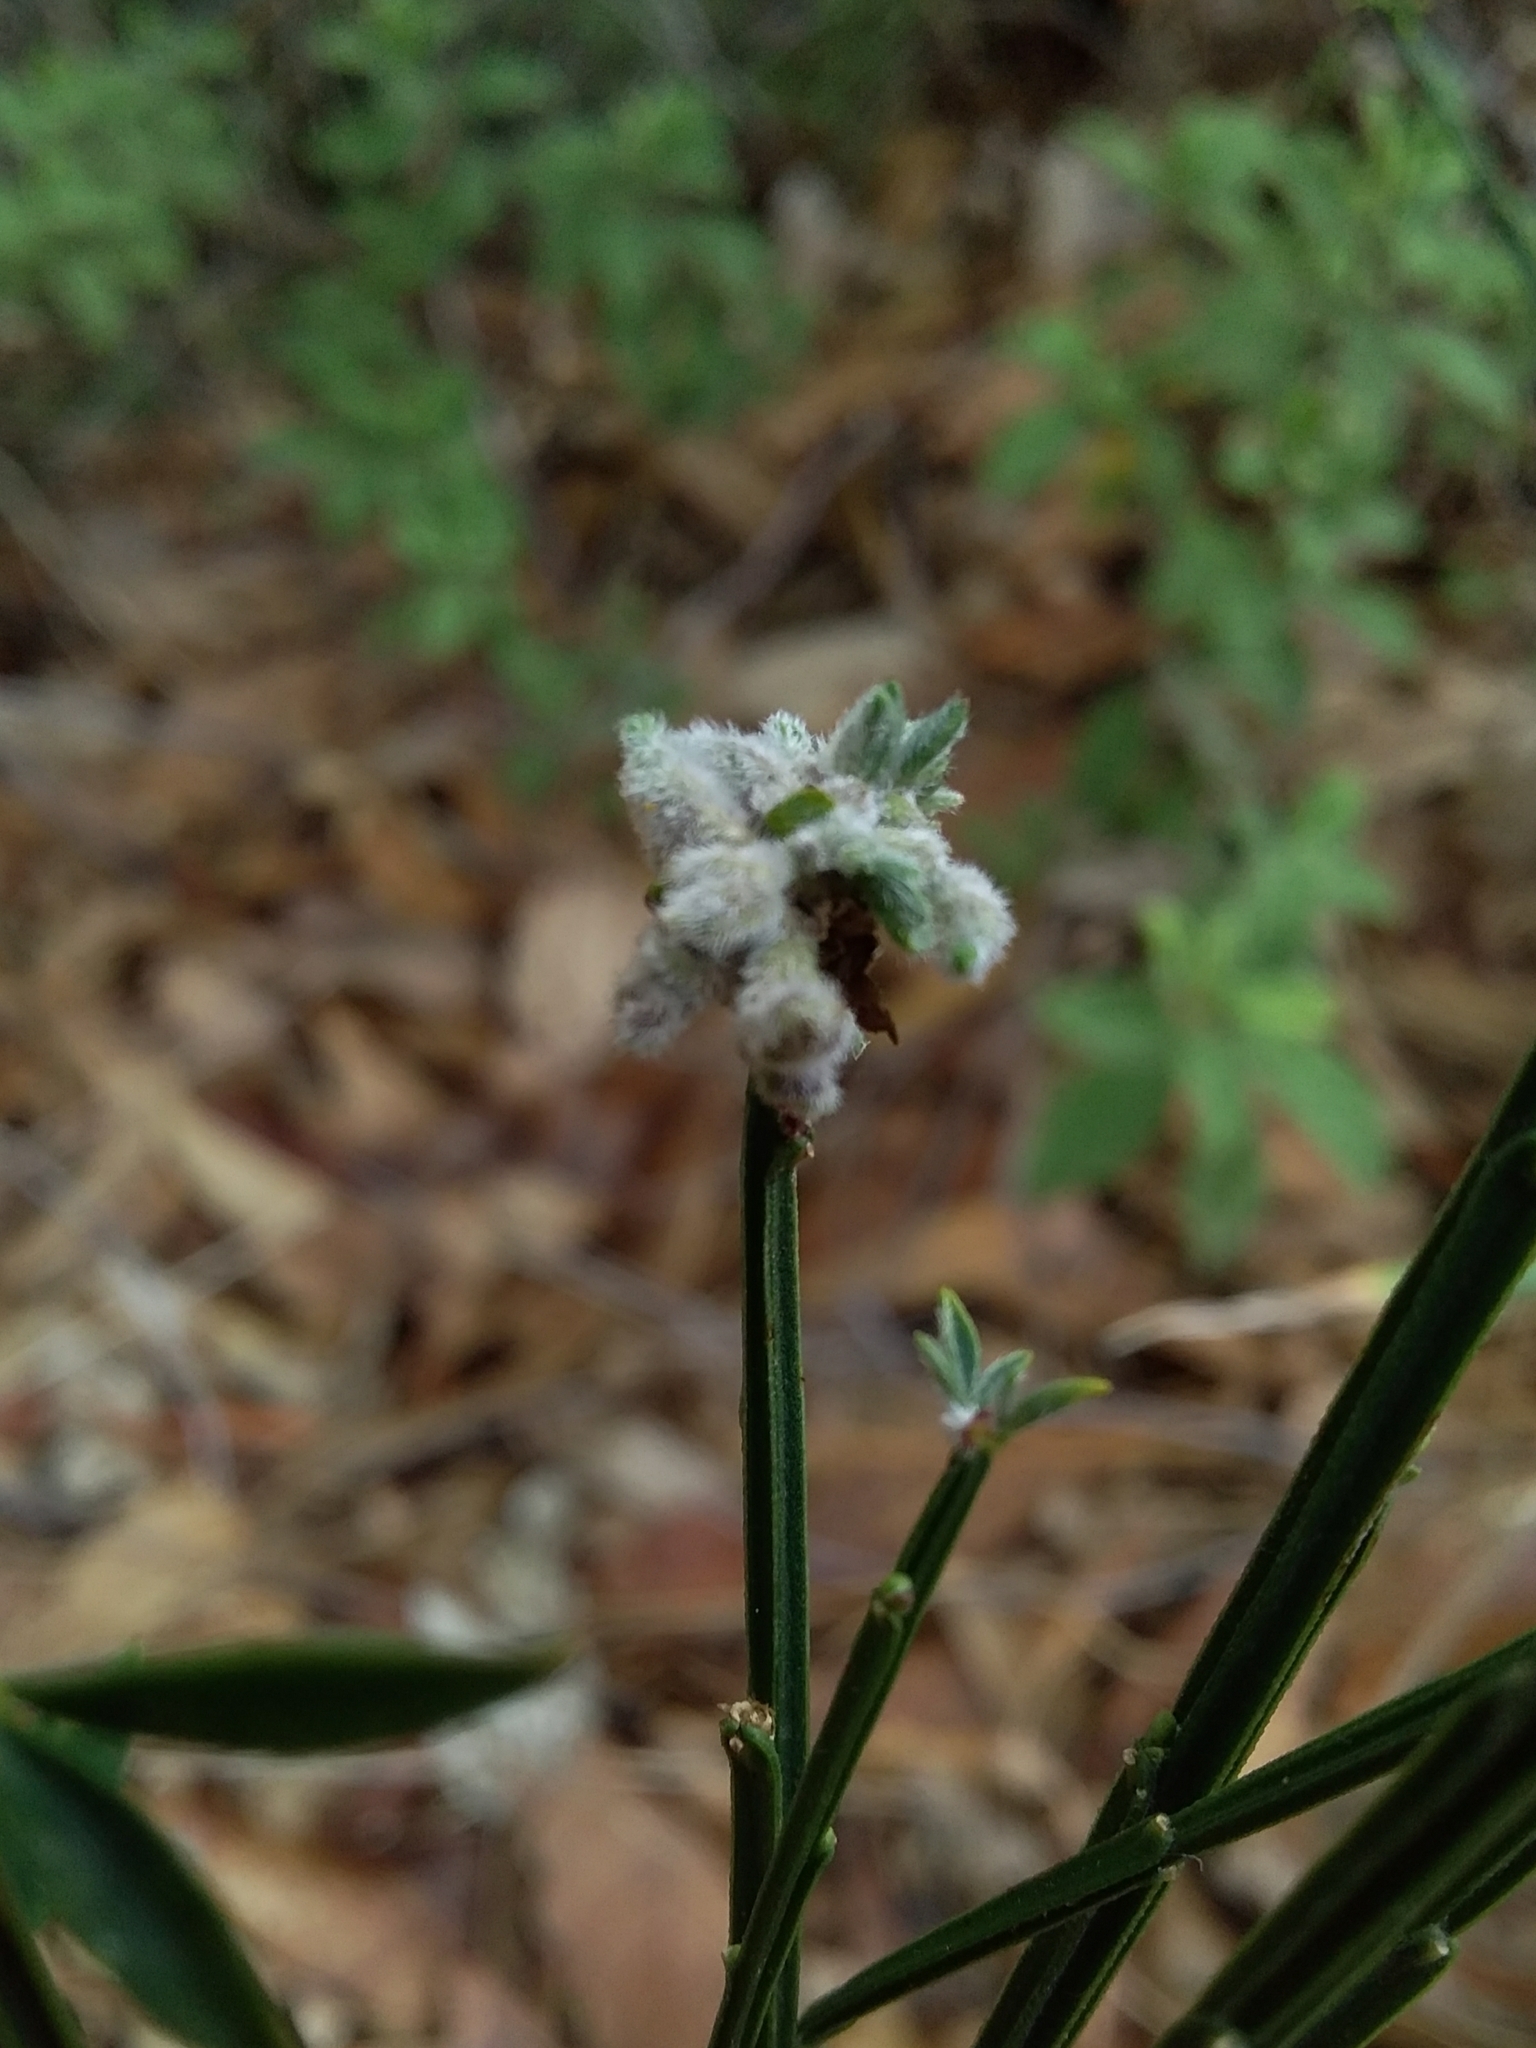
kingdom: Animalia
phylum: Arthropoda
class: Arachnida
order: Trombidiformes
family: Eriophyidae
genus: Aceria
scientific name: Aceria genistae
